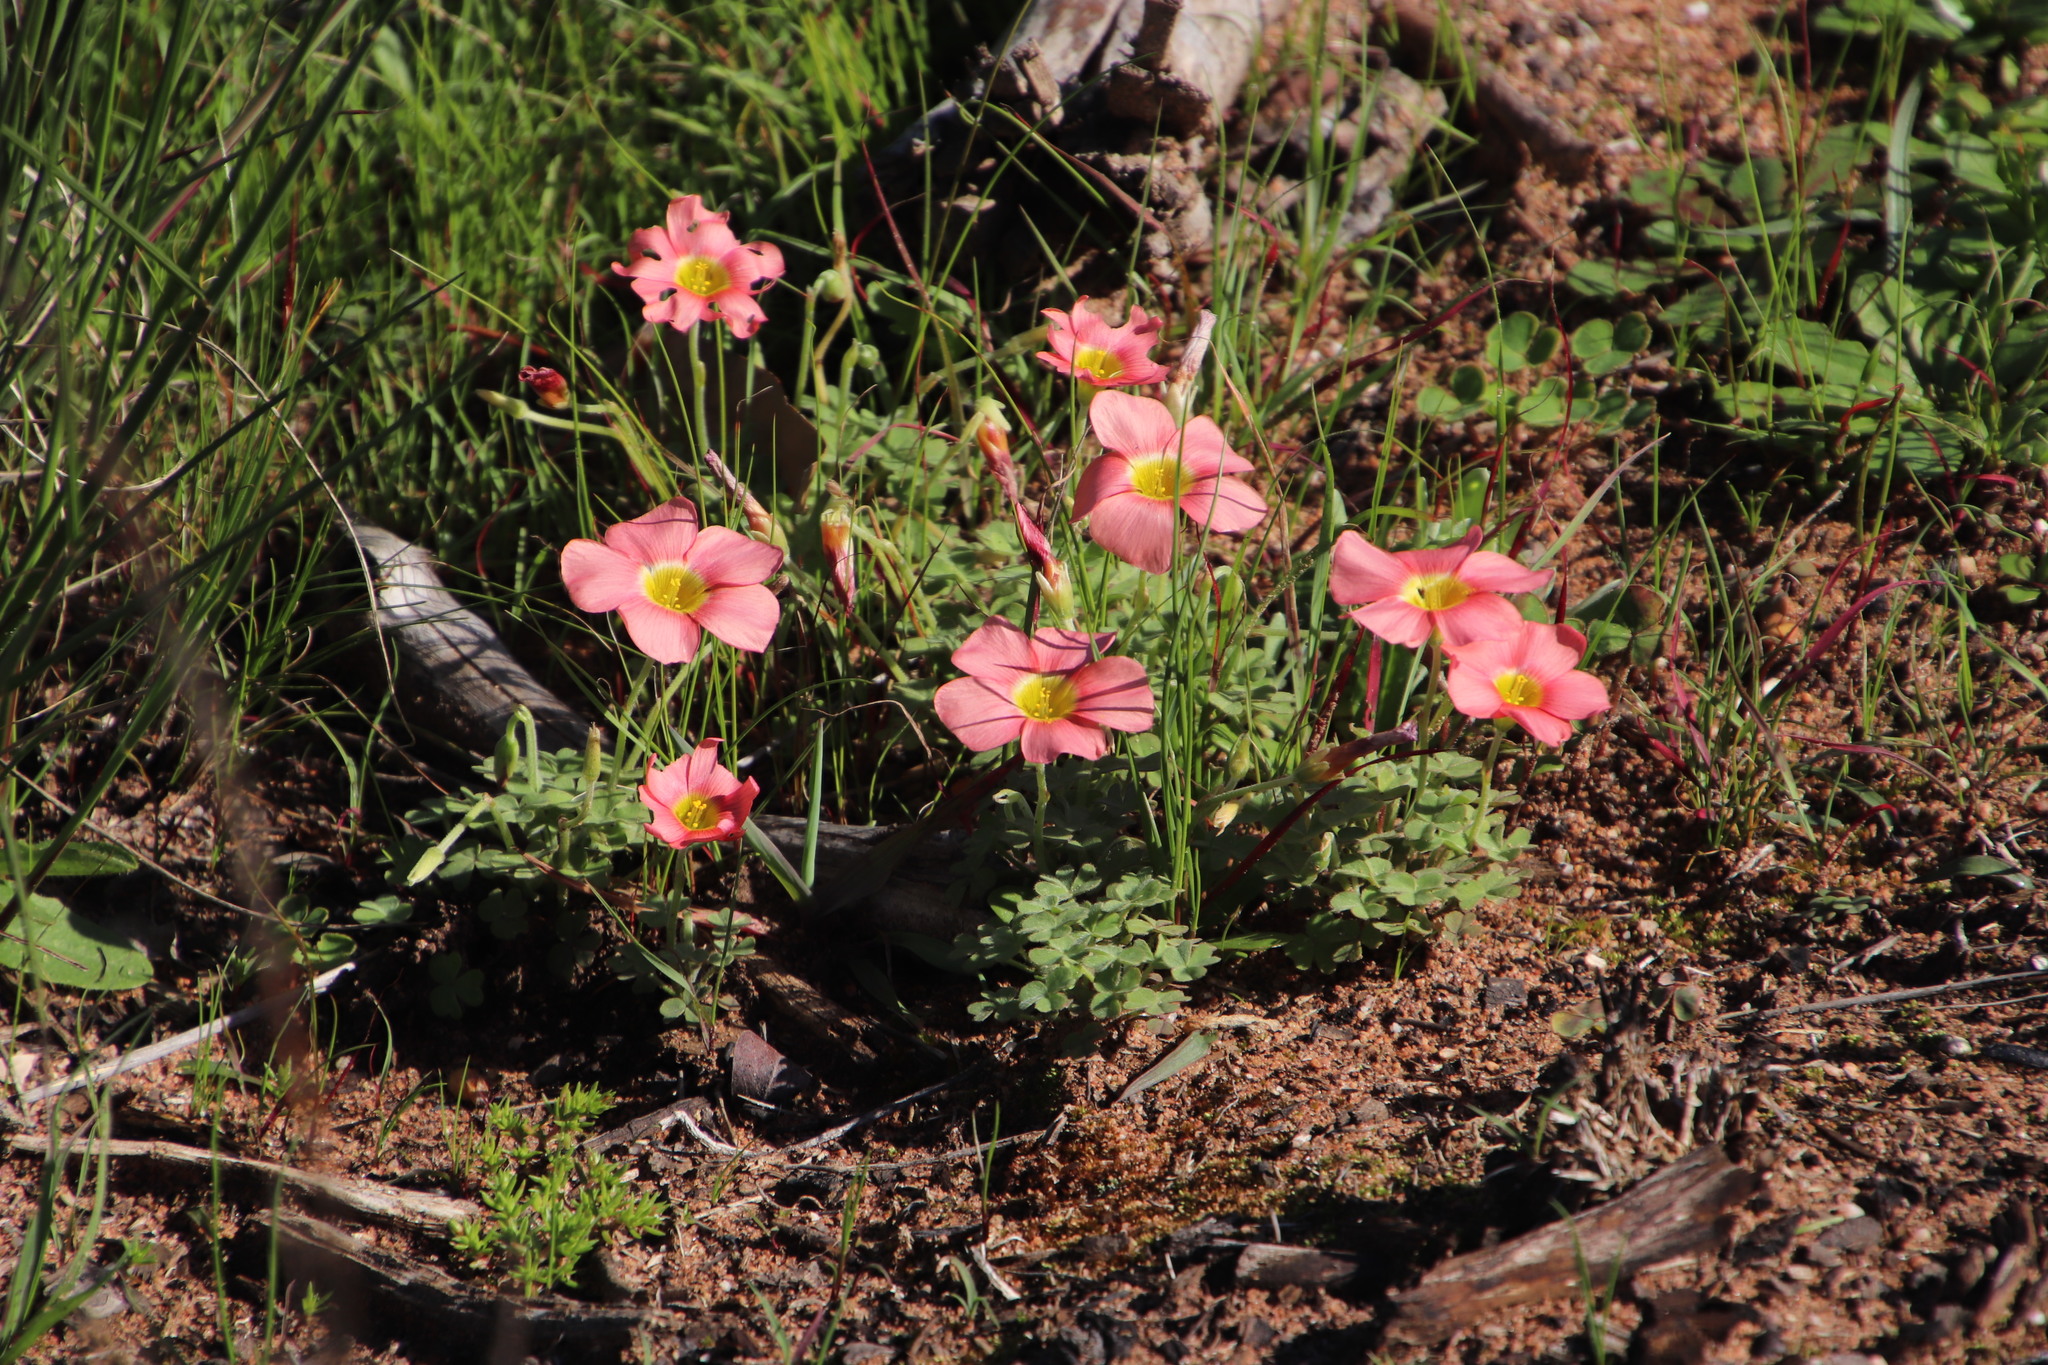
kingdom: Plantae
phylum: Tracheophyta
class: Magnoliopsida
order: Oxalidales
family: Oxalidaceae
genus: Oxalis
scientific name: Oxalis obtusa
